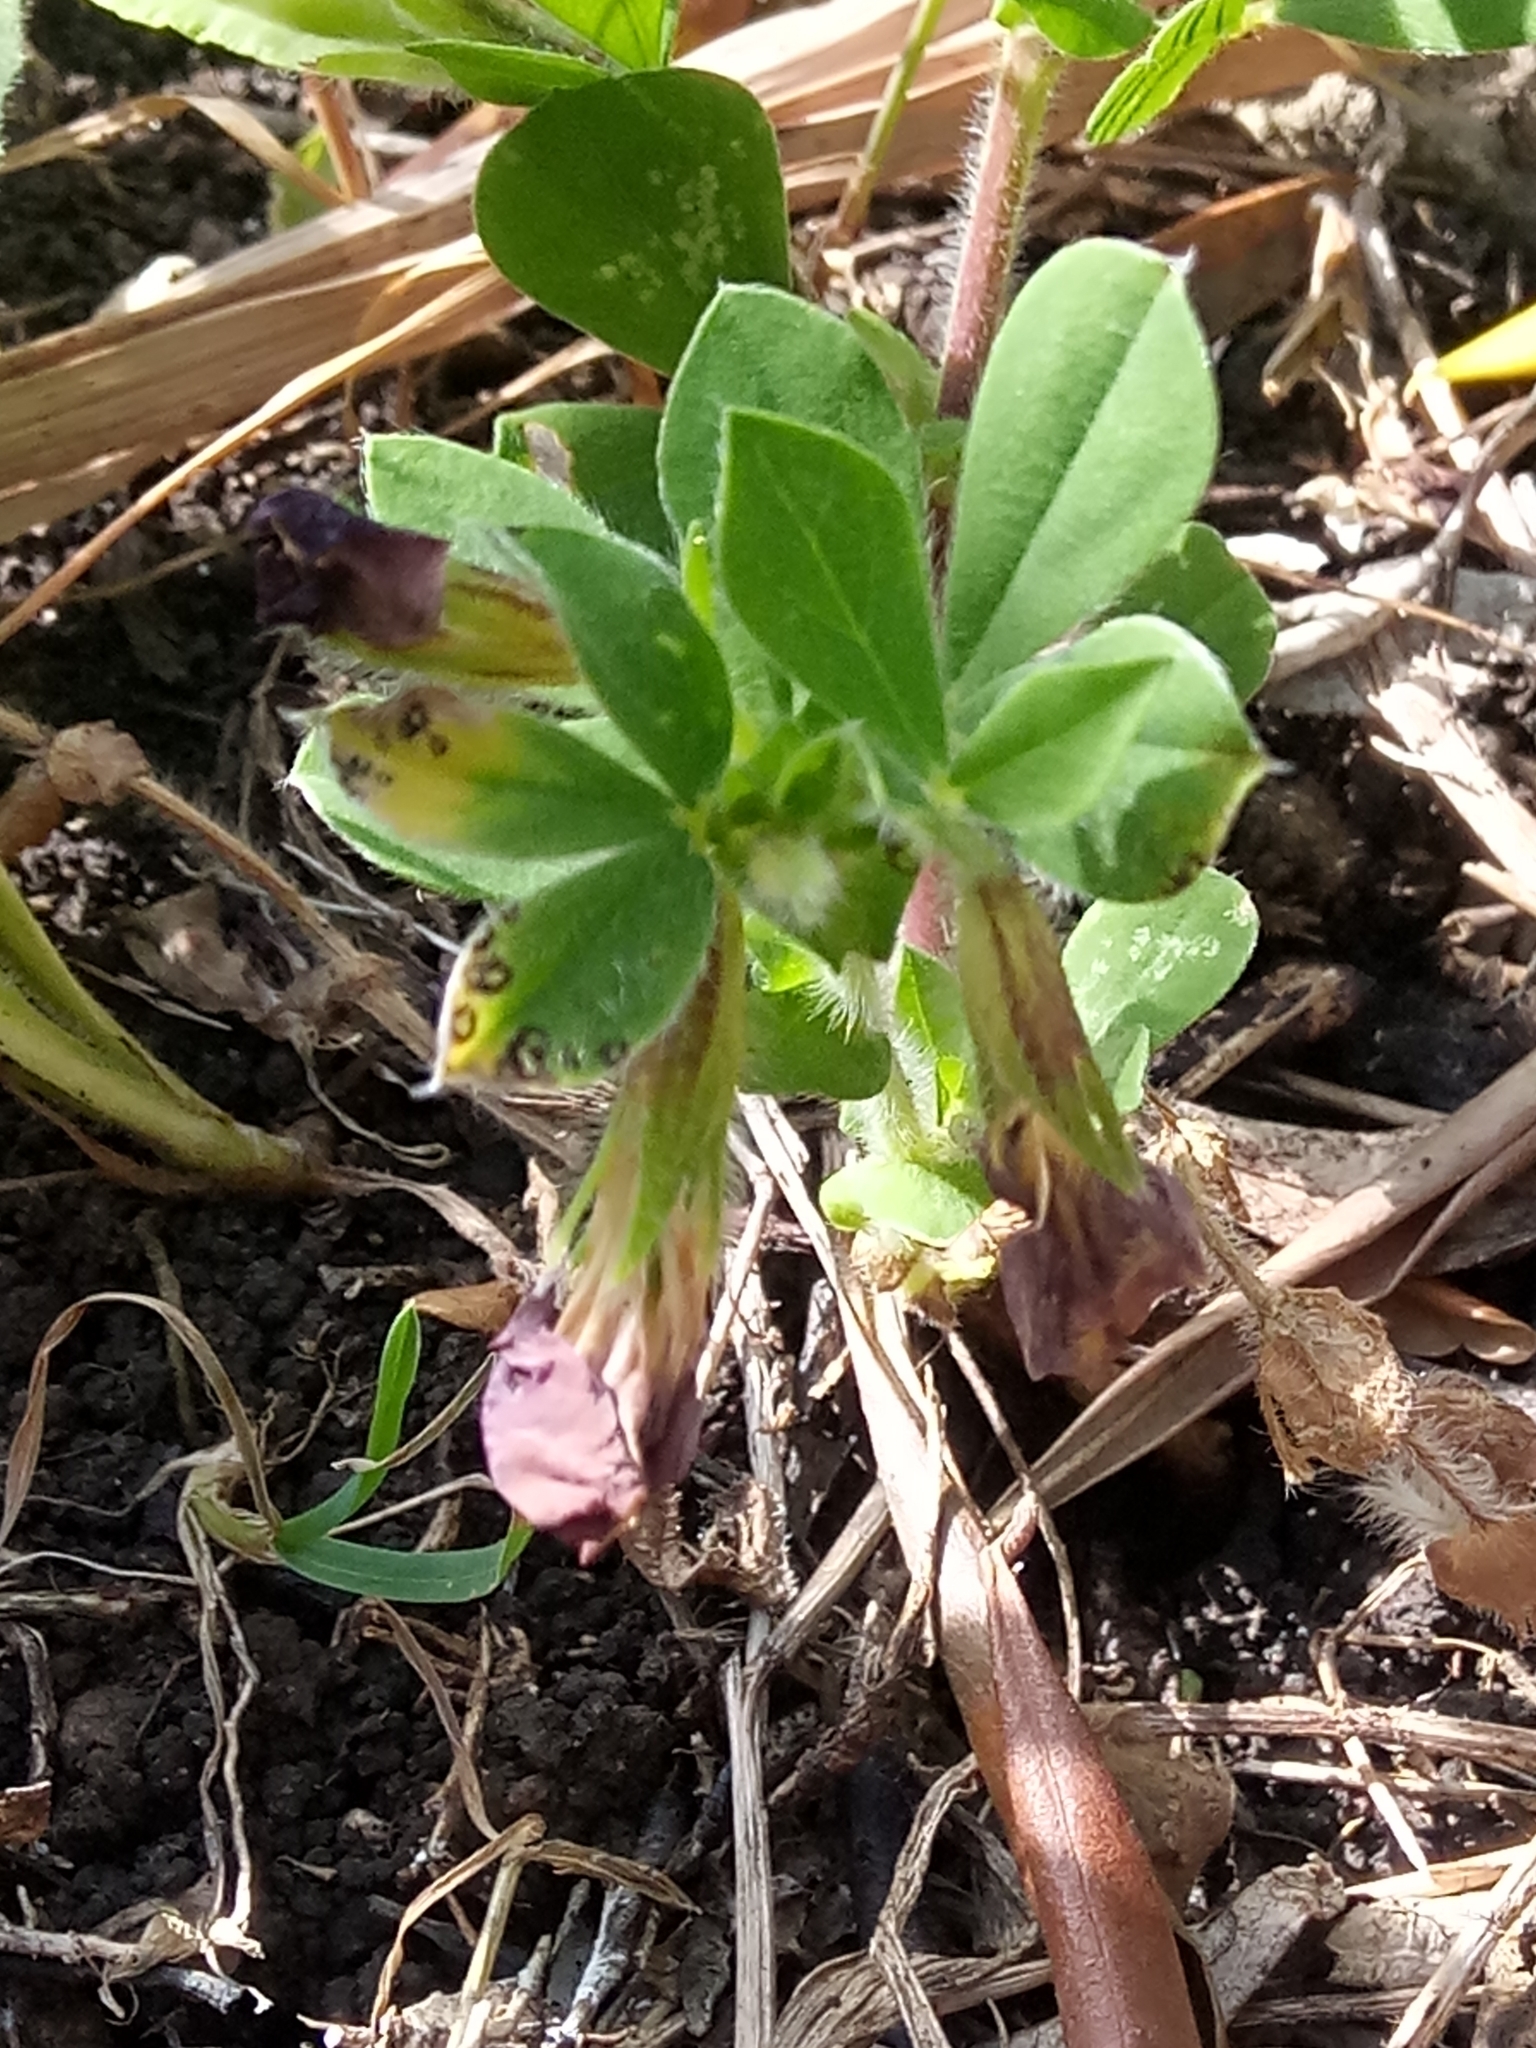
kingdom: Plantae
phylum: Tracheophyta
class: Magnoliopsida
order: Fabales
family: Fabaceae
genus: Lotus
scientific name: Lotus tetragonolobus
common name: Asparagus-pea
